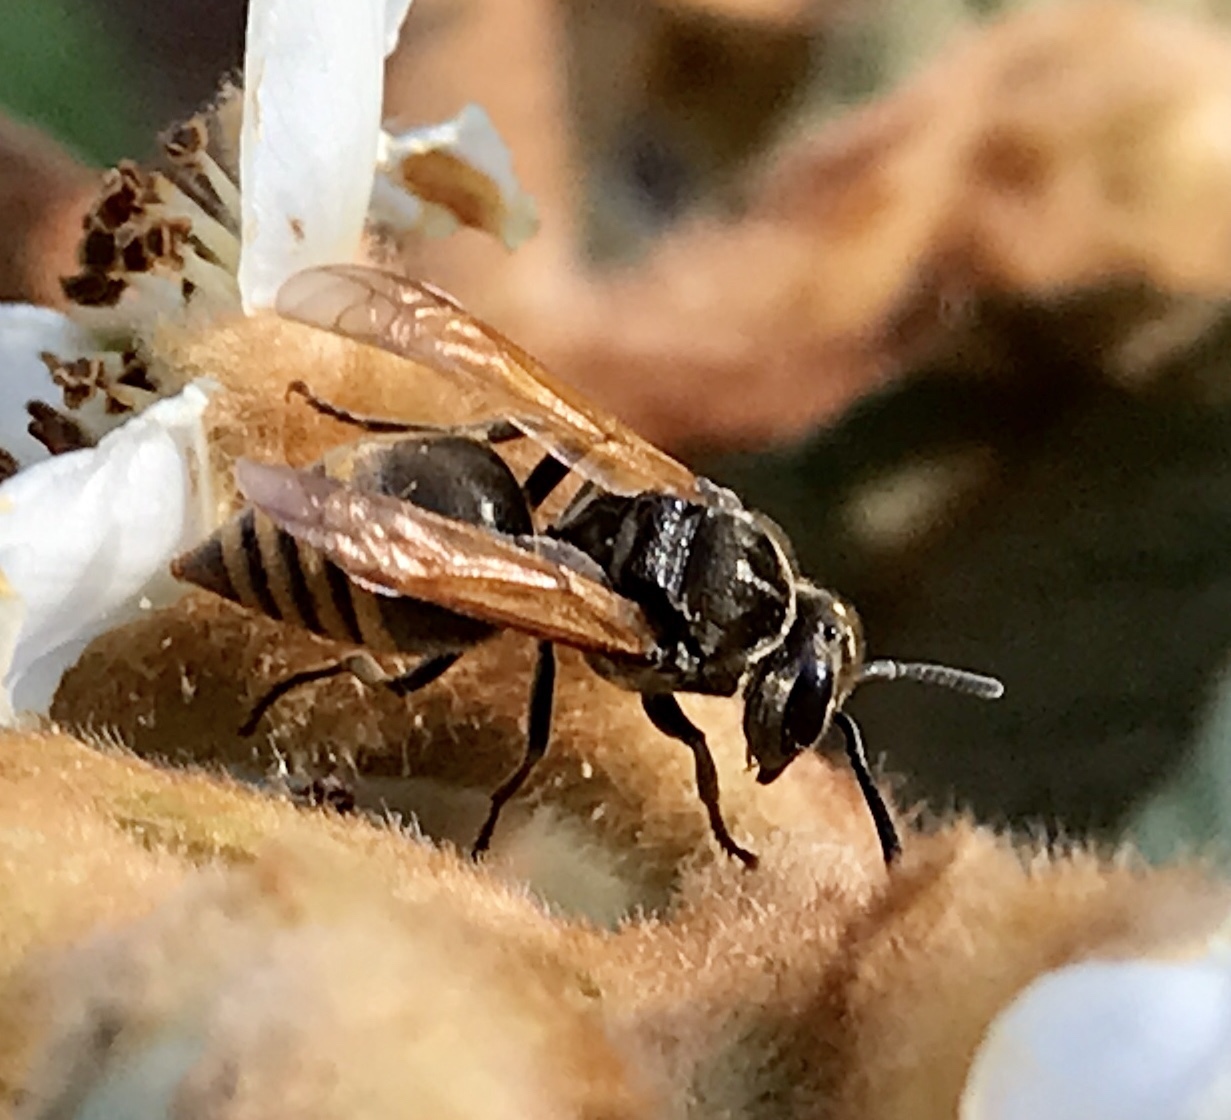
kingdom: Animalia
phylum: Arthropoda
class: Insecta
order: Hymenoptera
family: Vespidae
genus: Brachygastra
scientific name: Brachygastra mellifica
